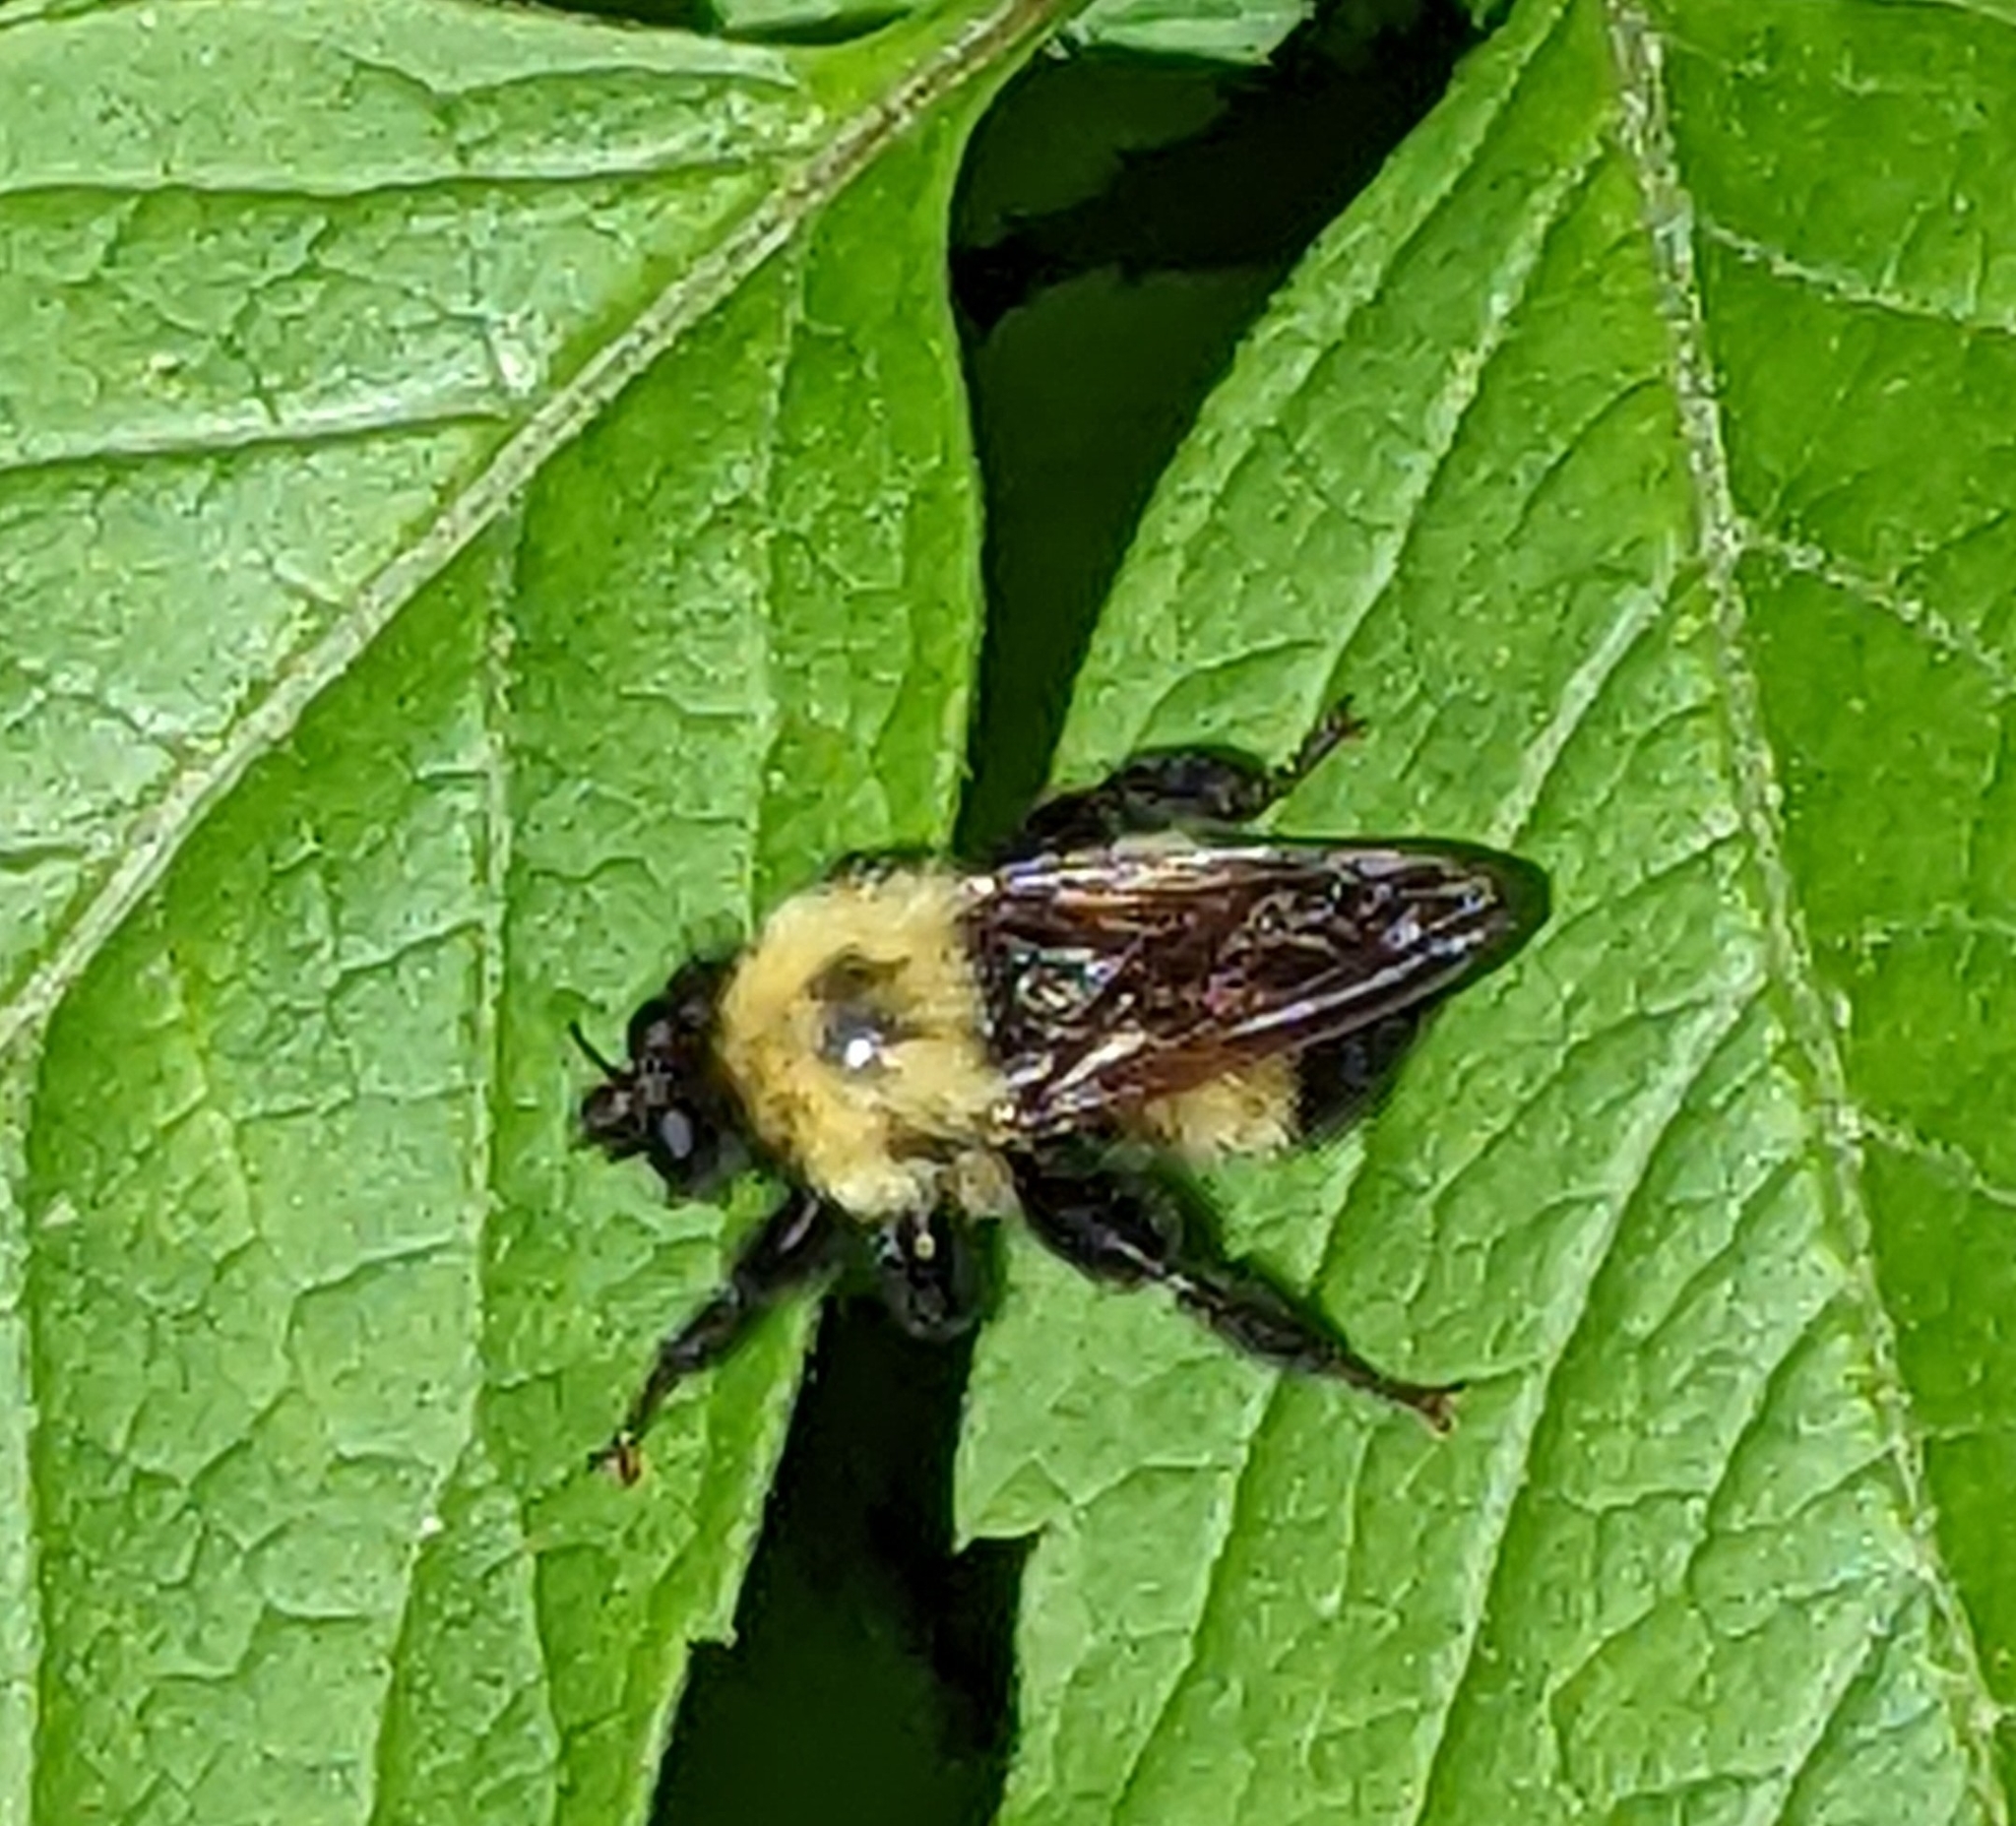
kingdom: Animalia
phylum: Arthropoda
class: Insecta
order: Diptera
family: Asilidae
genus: Laphria
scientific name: Laphria thoracica
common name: Bumble bee mimic robber fly
